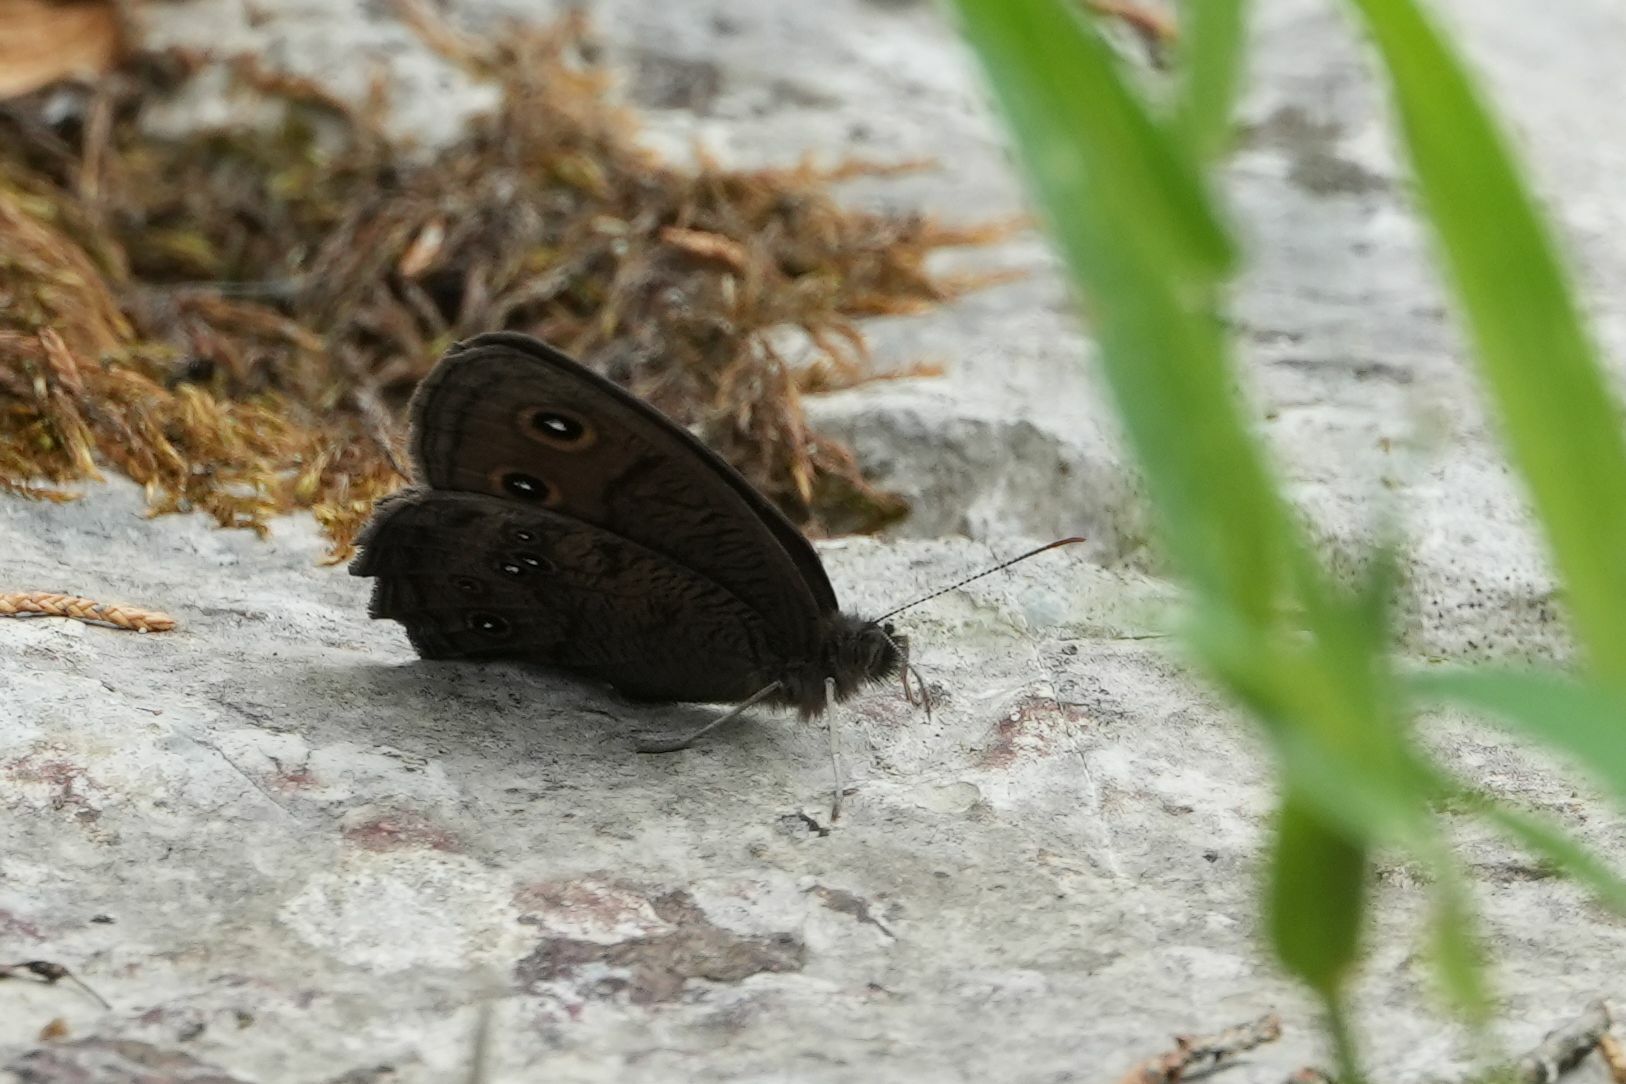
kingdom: Animalia
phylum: Arthropoda
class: Insecta
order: Lepidoptera
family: Nymphalidae
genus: Cercyonis
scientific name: Cercyonis pegala
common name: Common wood-nymph
